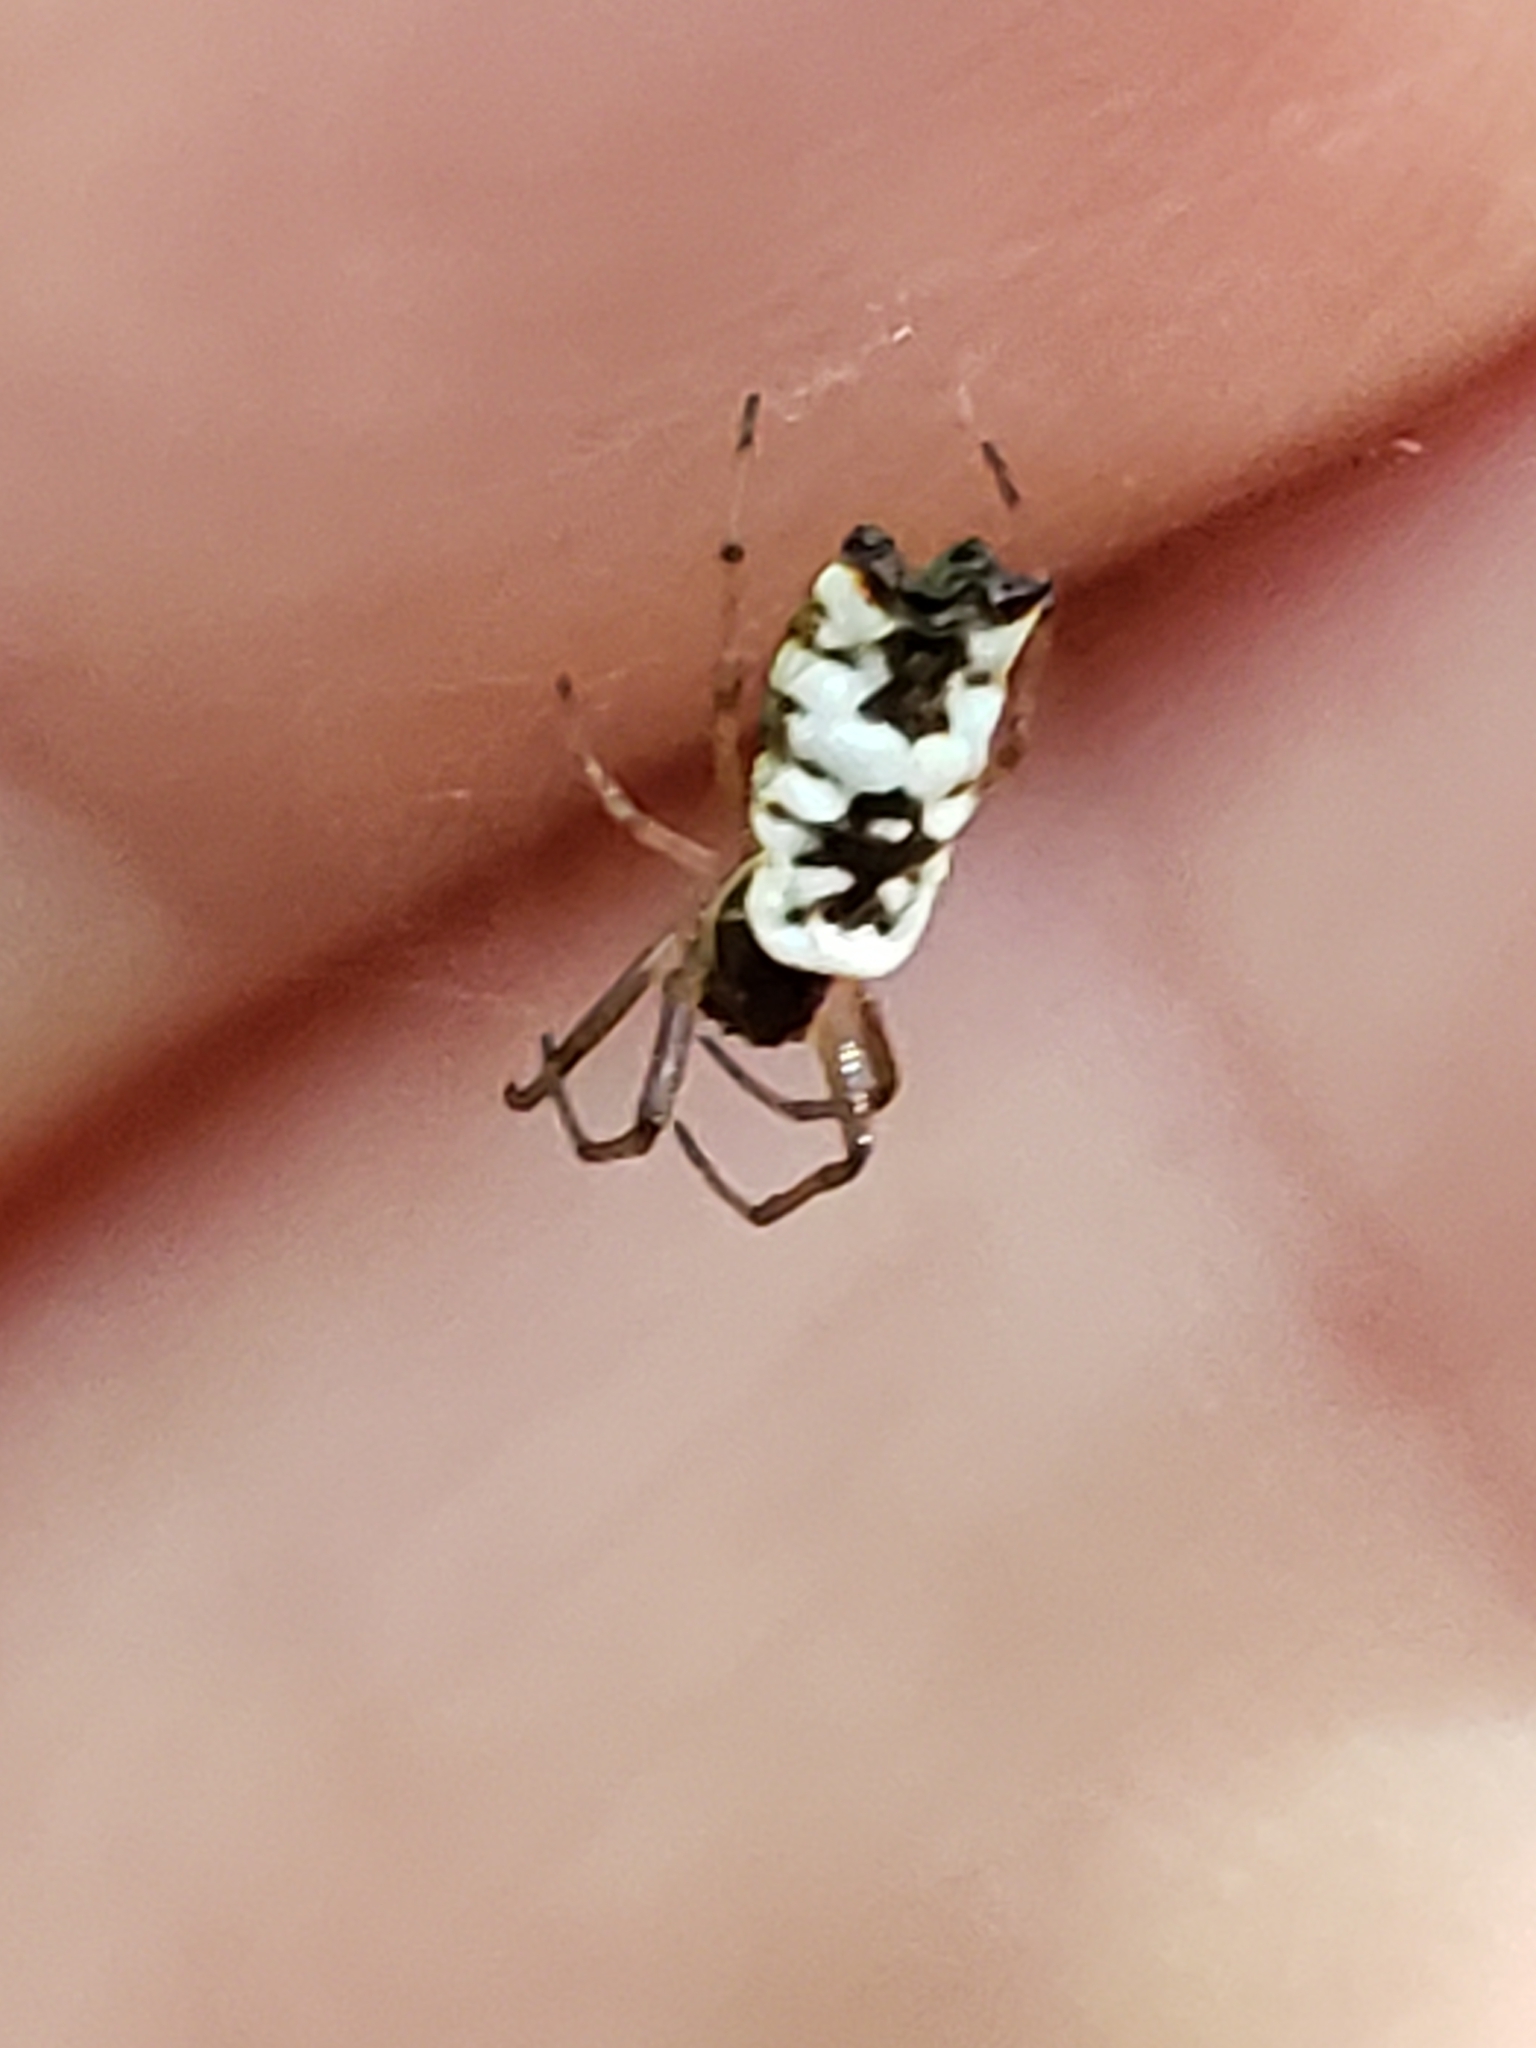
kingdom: Animalia
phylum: Arthropoda
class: Arachnida
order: Araneae
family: Araneidae
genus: Micrathena
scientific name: Micrathena mitrata
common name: Orb weavers
